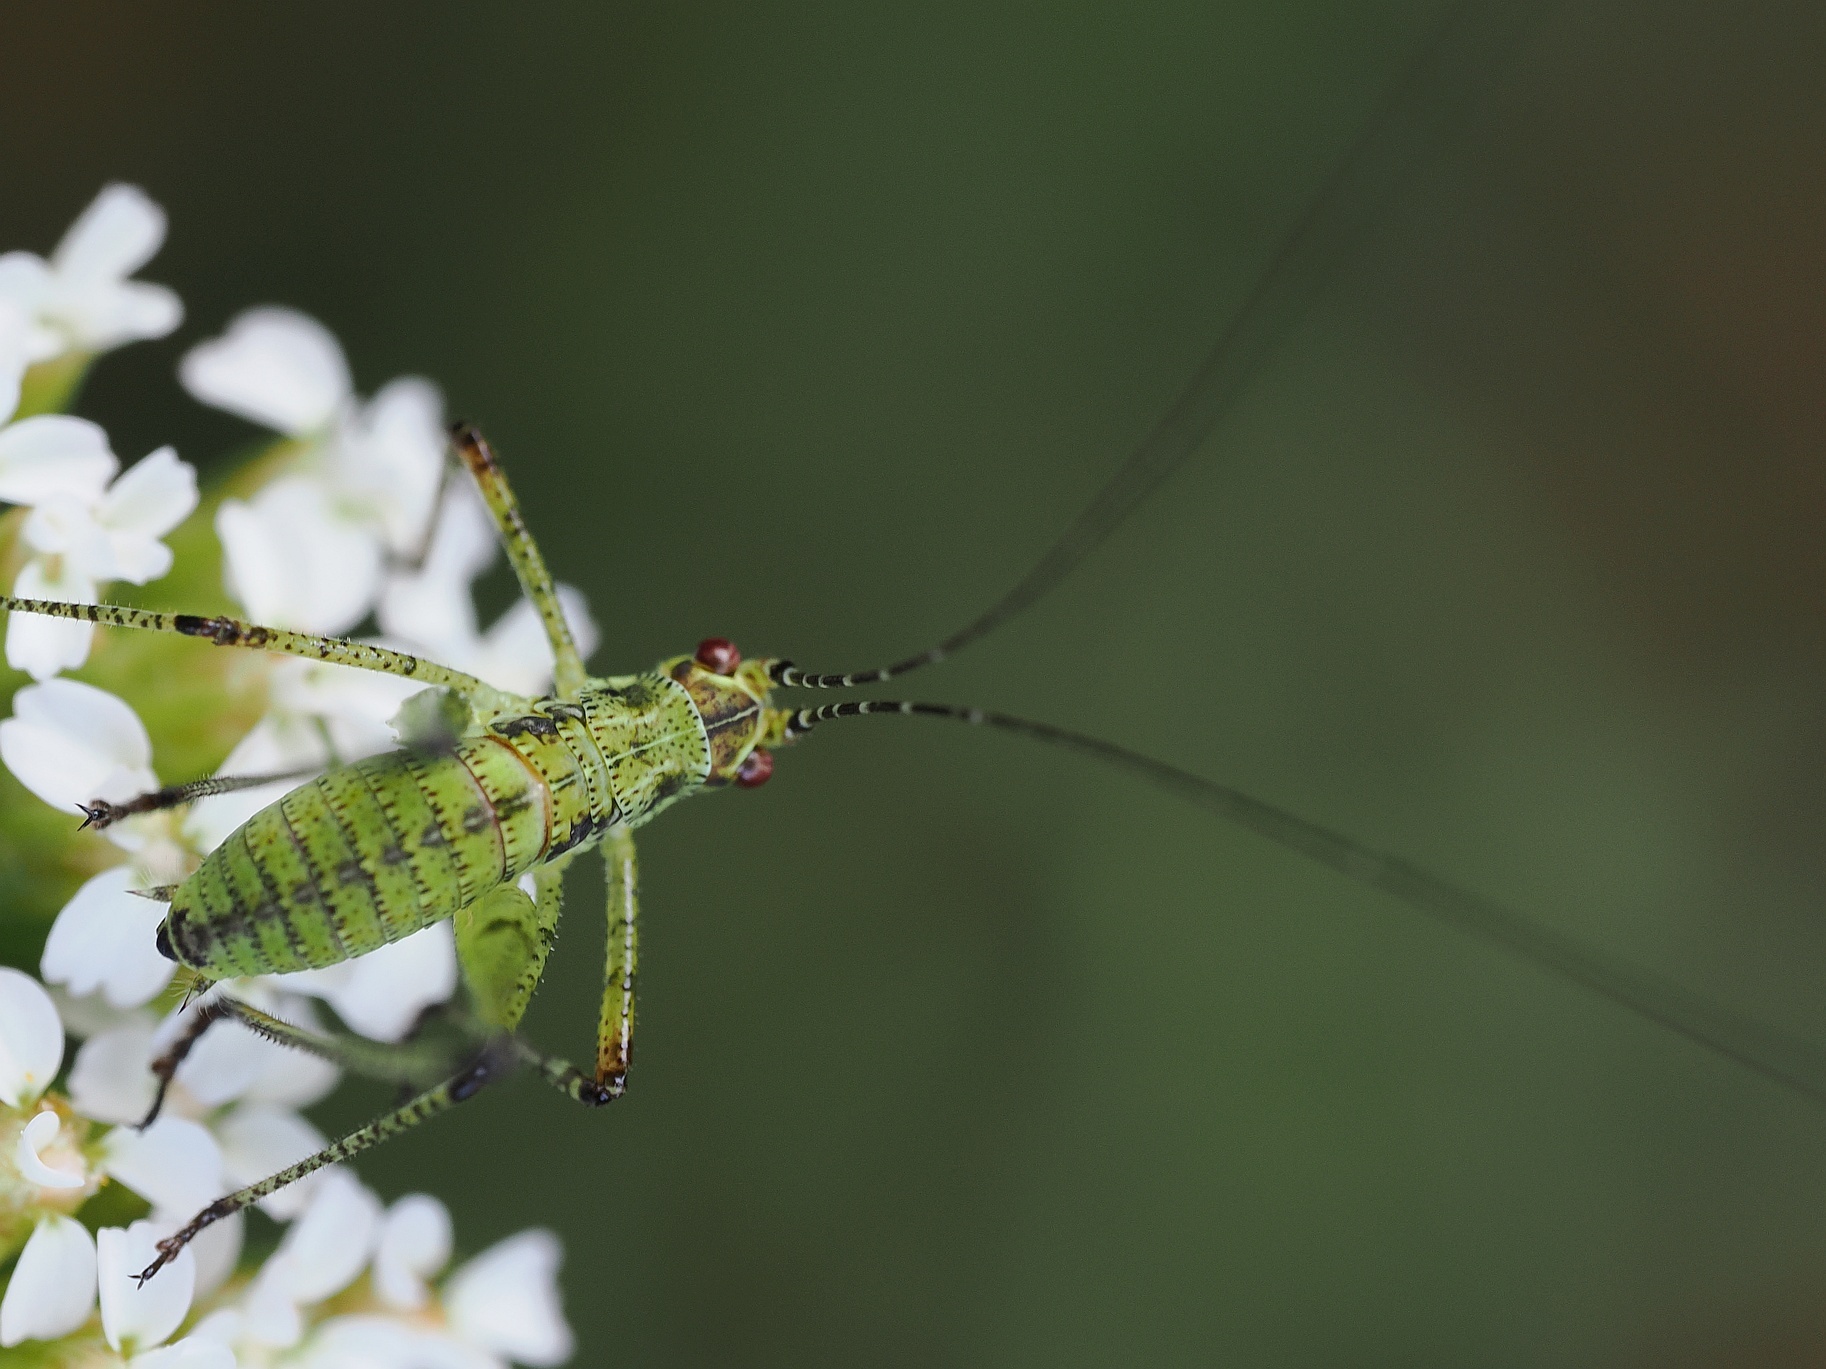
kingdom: Animalia
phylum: Arthropoda
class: Insecta
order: Orthoptera
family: Tettigoniidae
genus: Phaneroptera
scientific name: Phaneroptera nana
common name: Southern sickle bush-cricket
